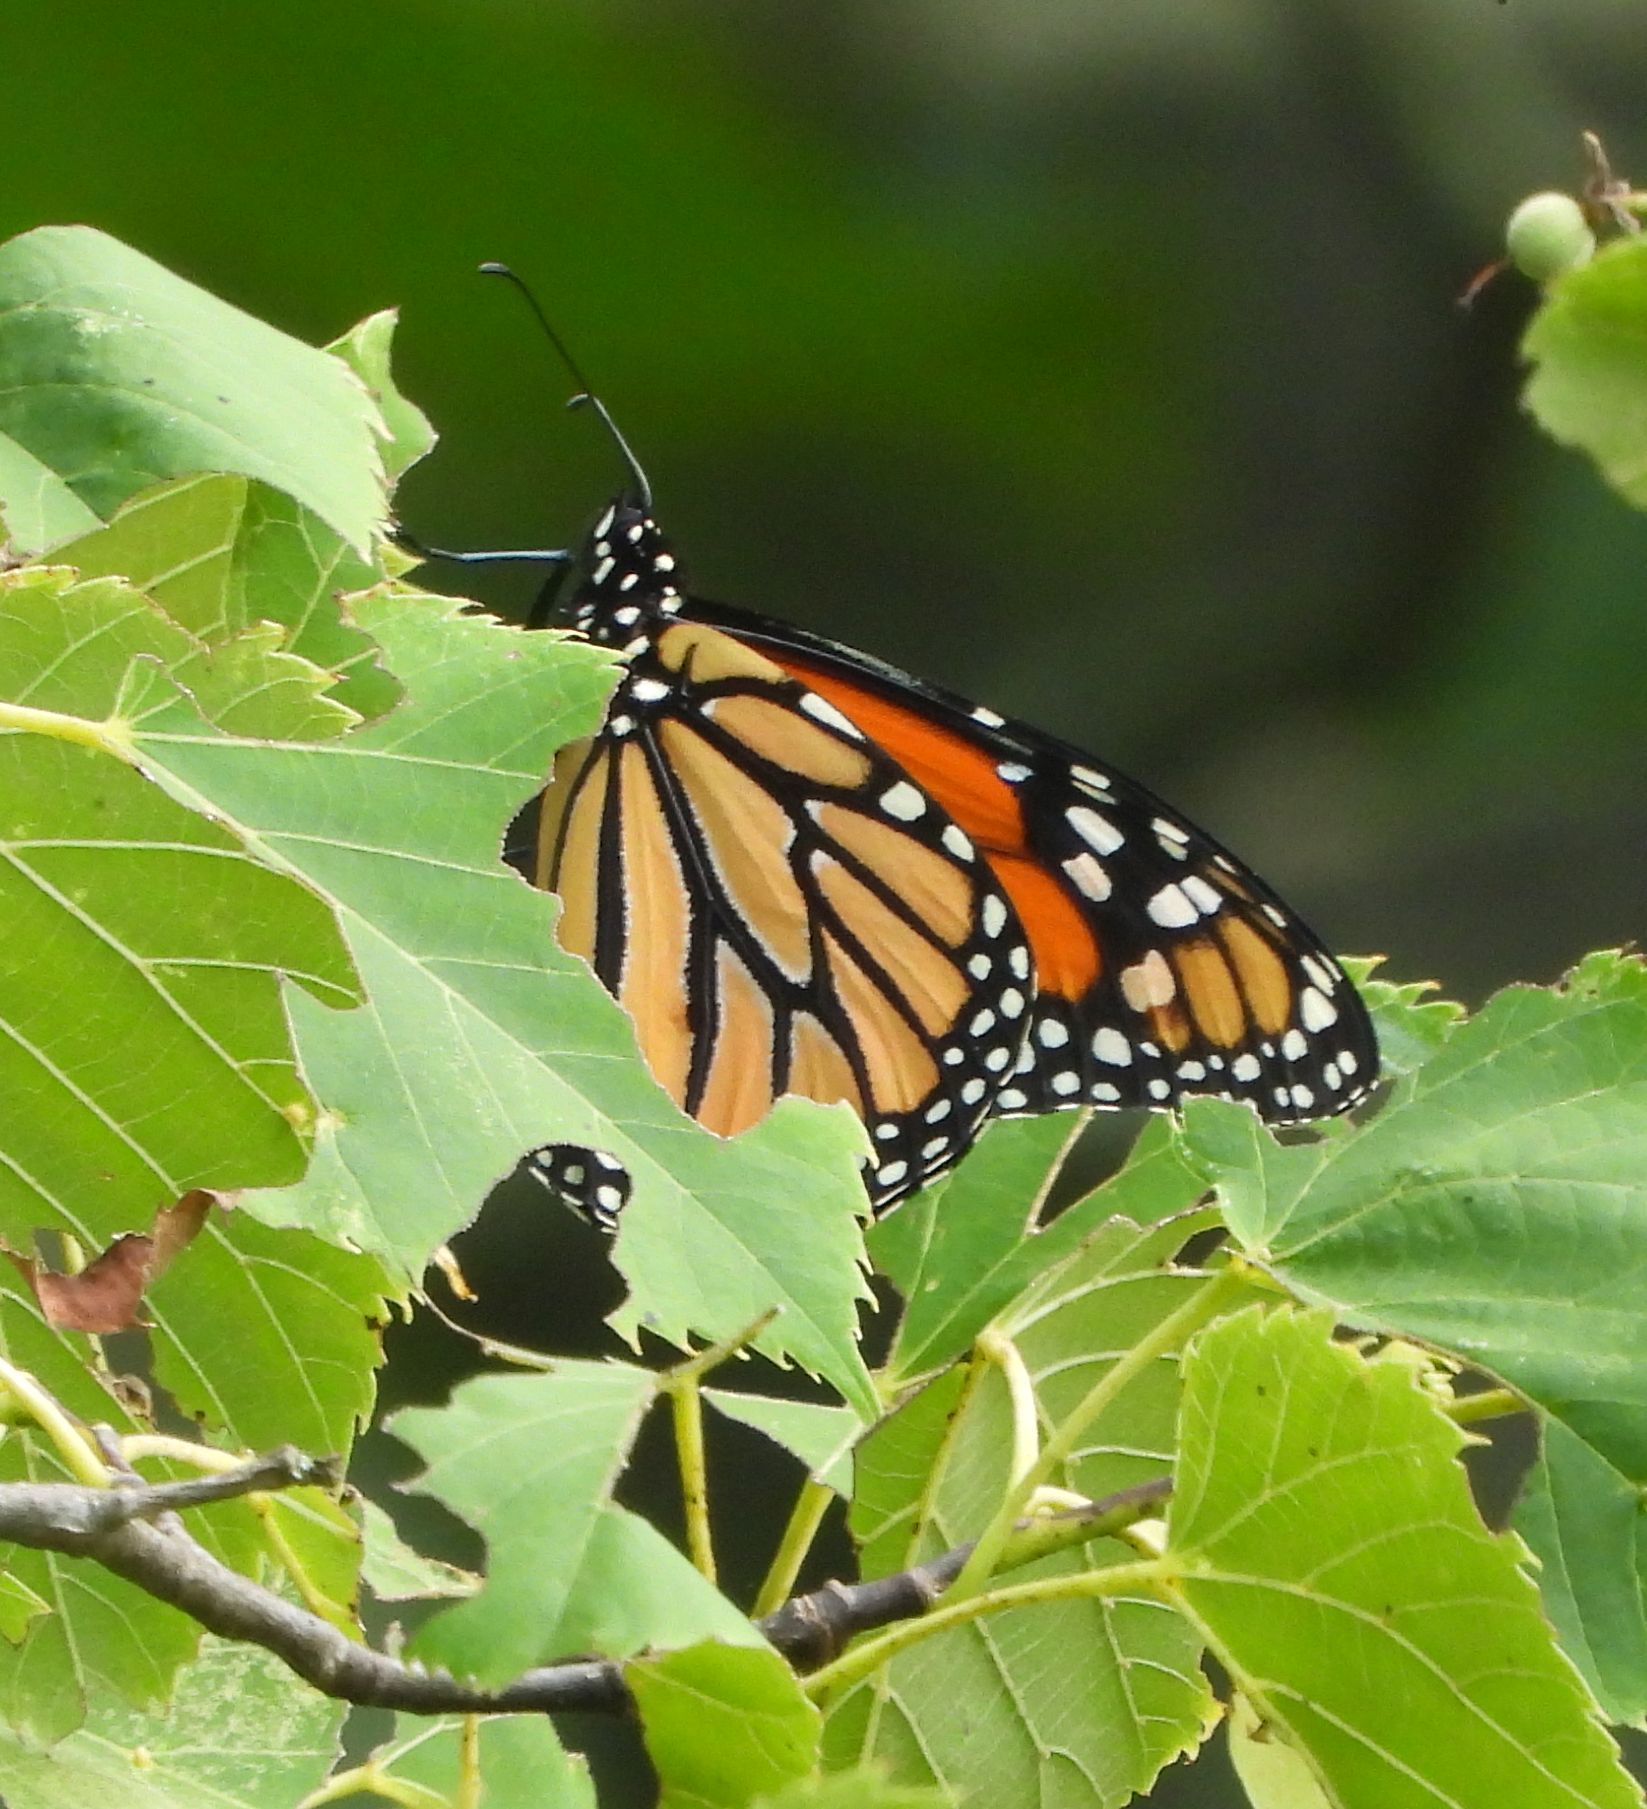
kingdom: Animalia
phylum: Arthropoda
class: Insecta
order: Lepidoptera
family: Nymphalidae
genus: Danaus
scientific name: Danaus plexippus
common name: Monarch
